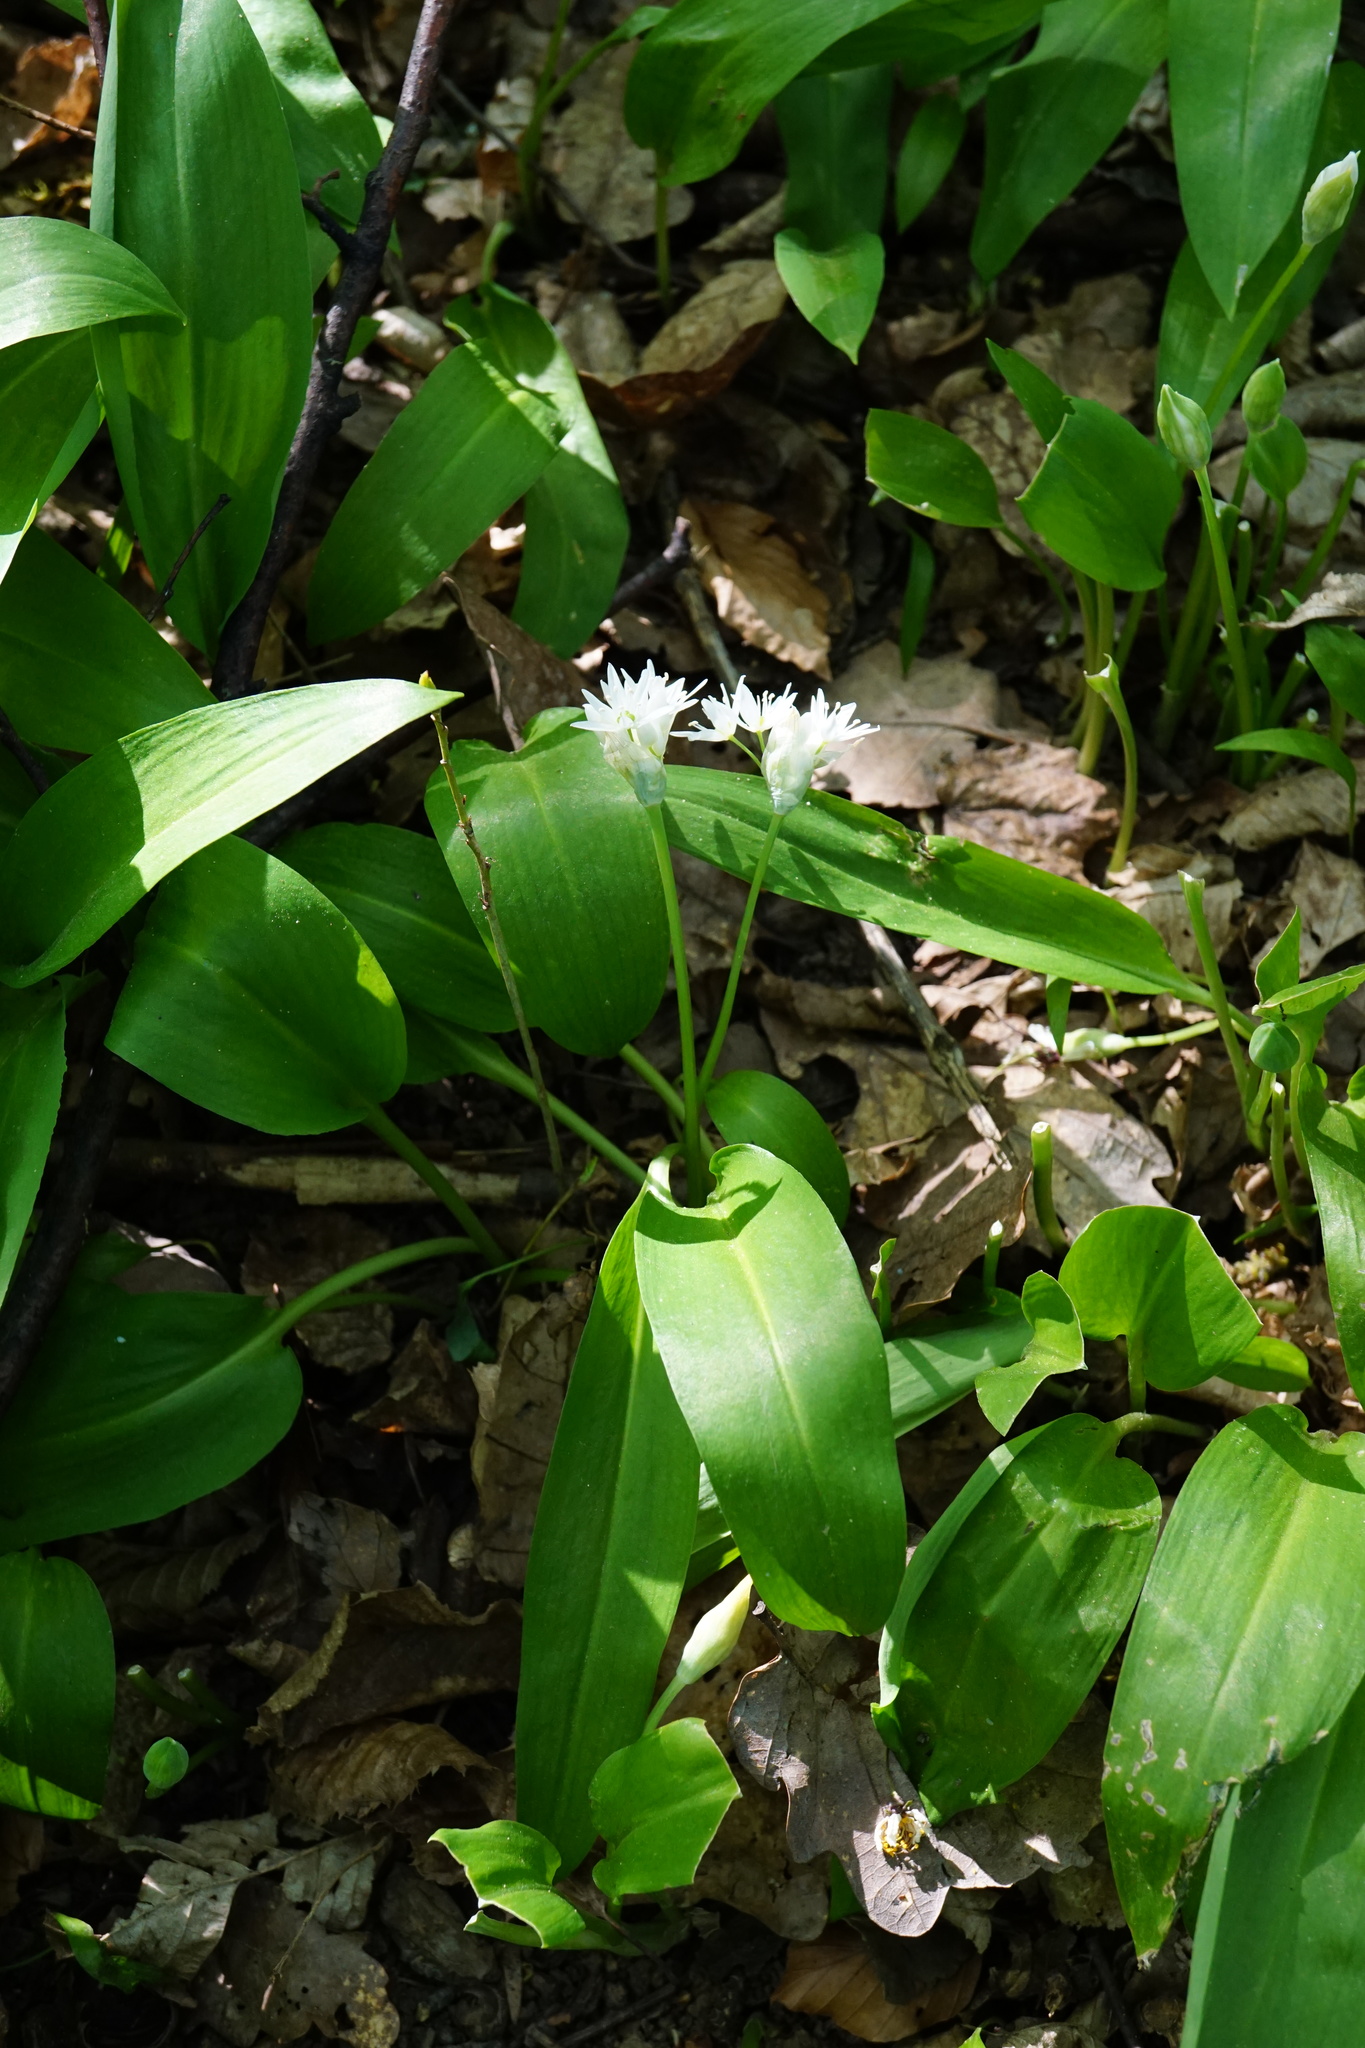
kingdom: Plantae
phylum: Tracheophyta
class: Liliopsida
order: Asparagales
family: Amaryllidaceae
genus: Allium
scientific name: Allium ursinum
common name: Ramsons
